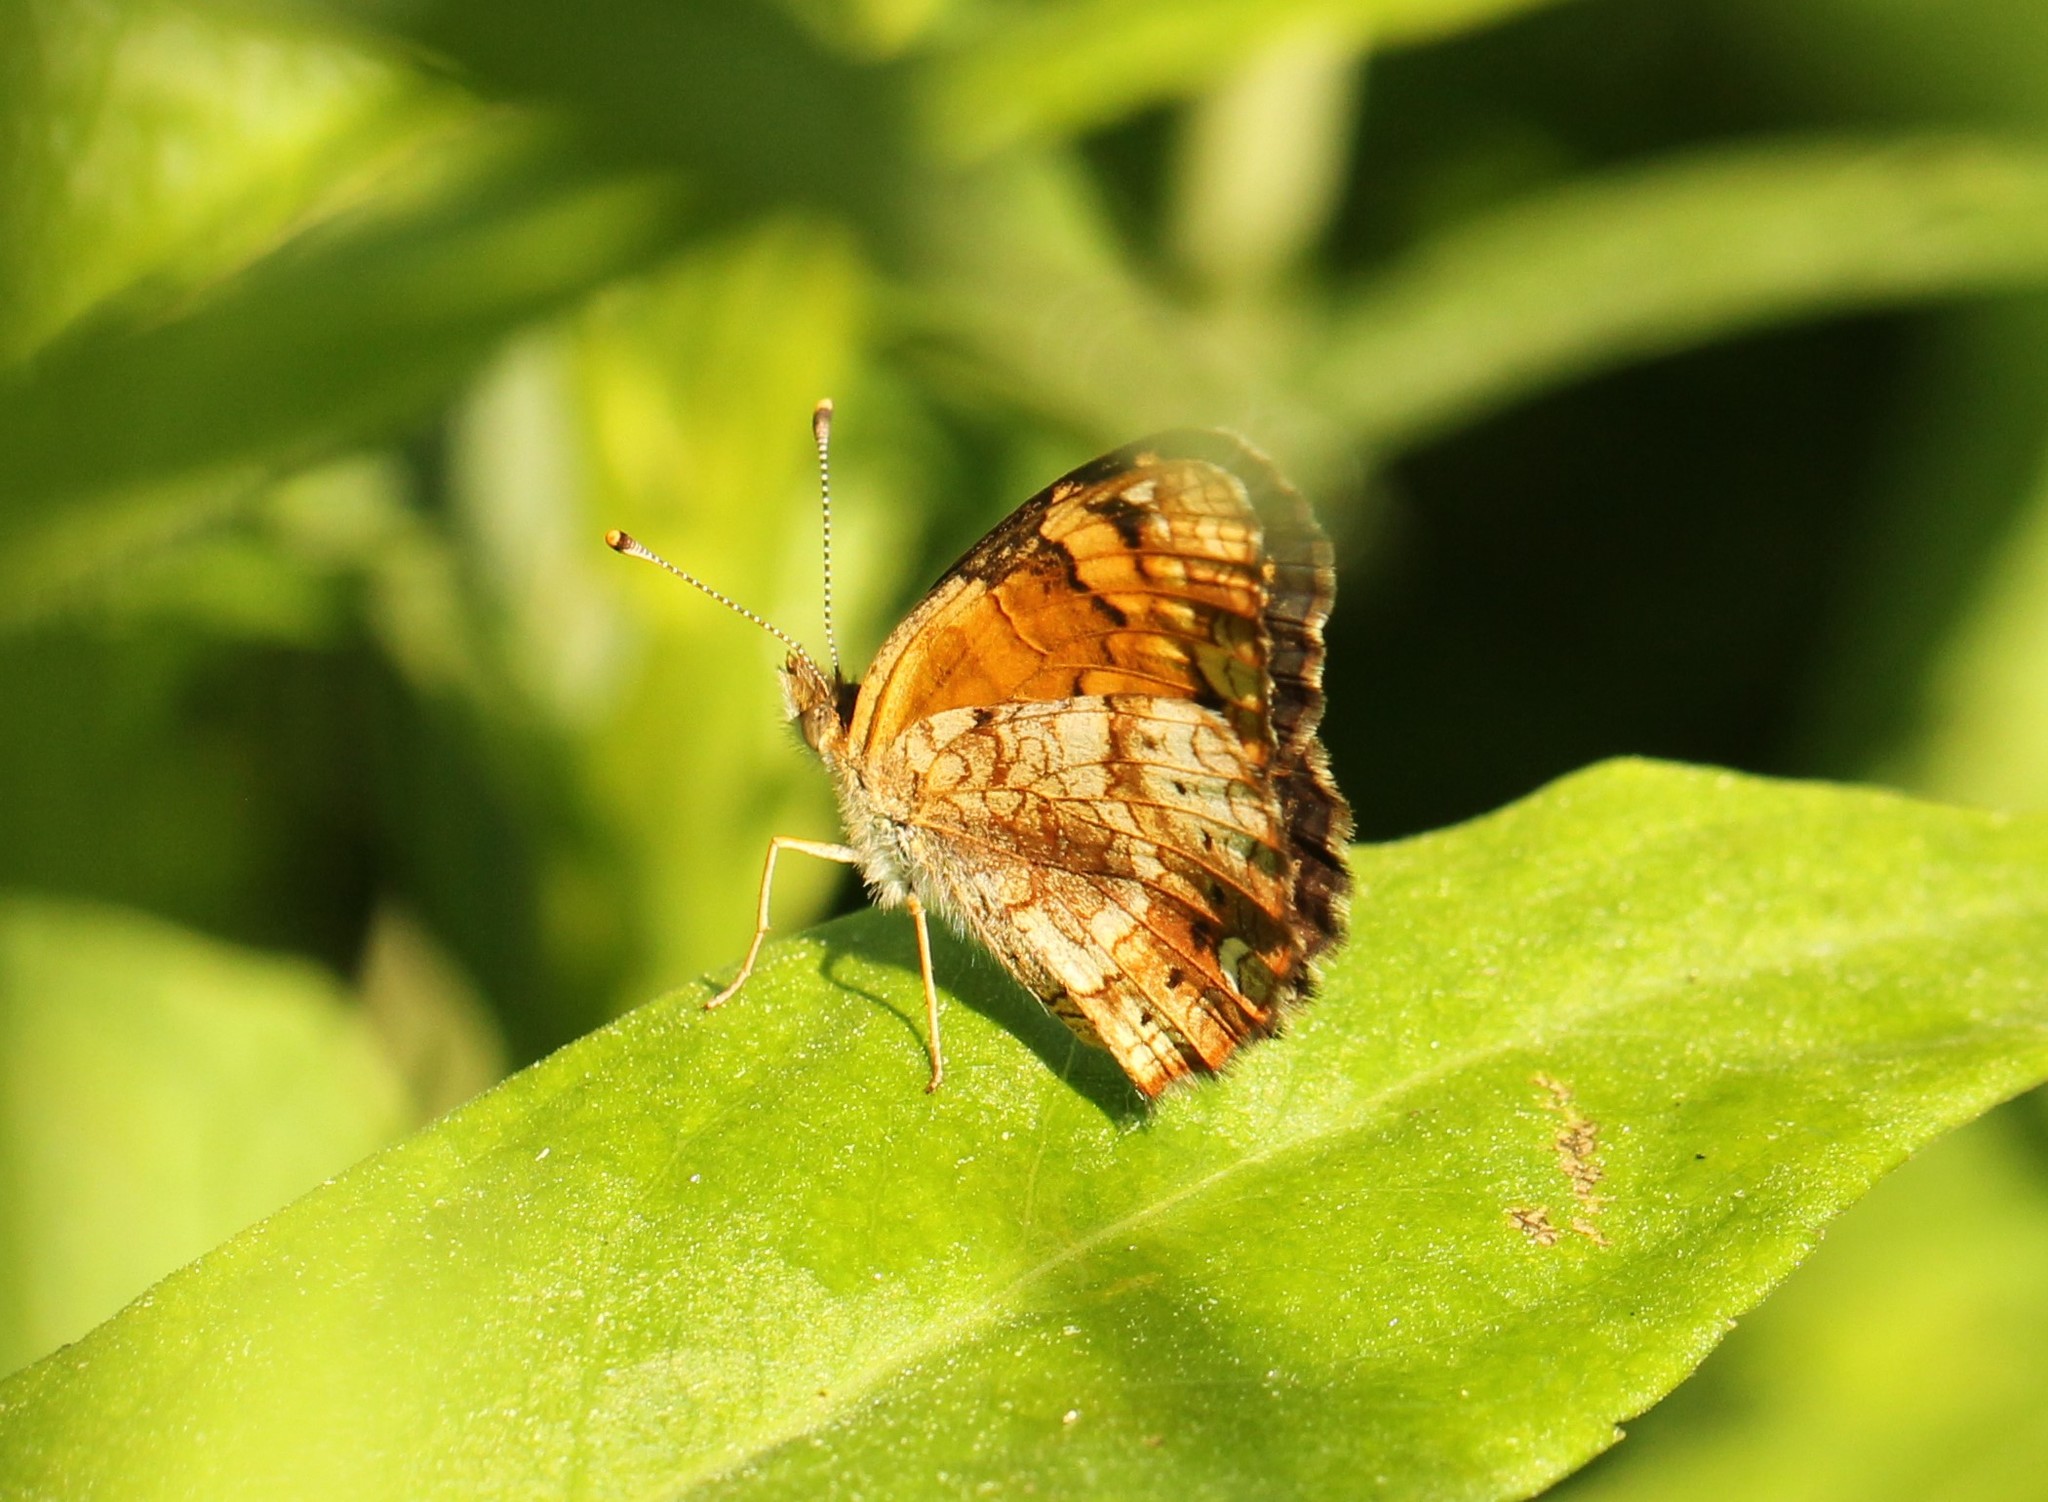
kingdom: Animalia
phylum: Arthropoda
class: Insecta
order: Lepidoptera
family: Nymphalidae
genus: Phyciodes
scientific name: Phyciodes tharos
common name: Pearl crescent
